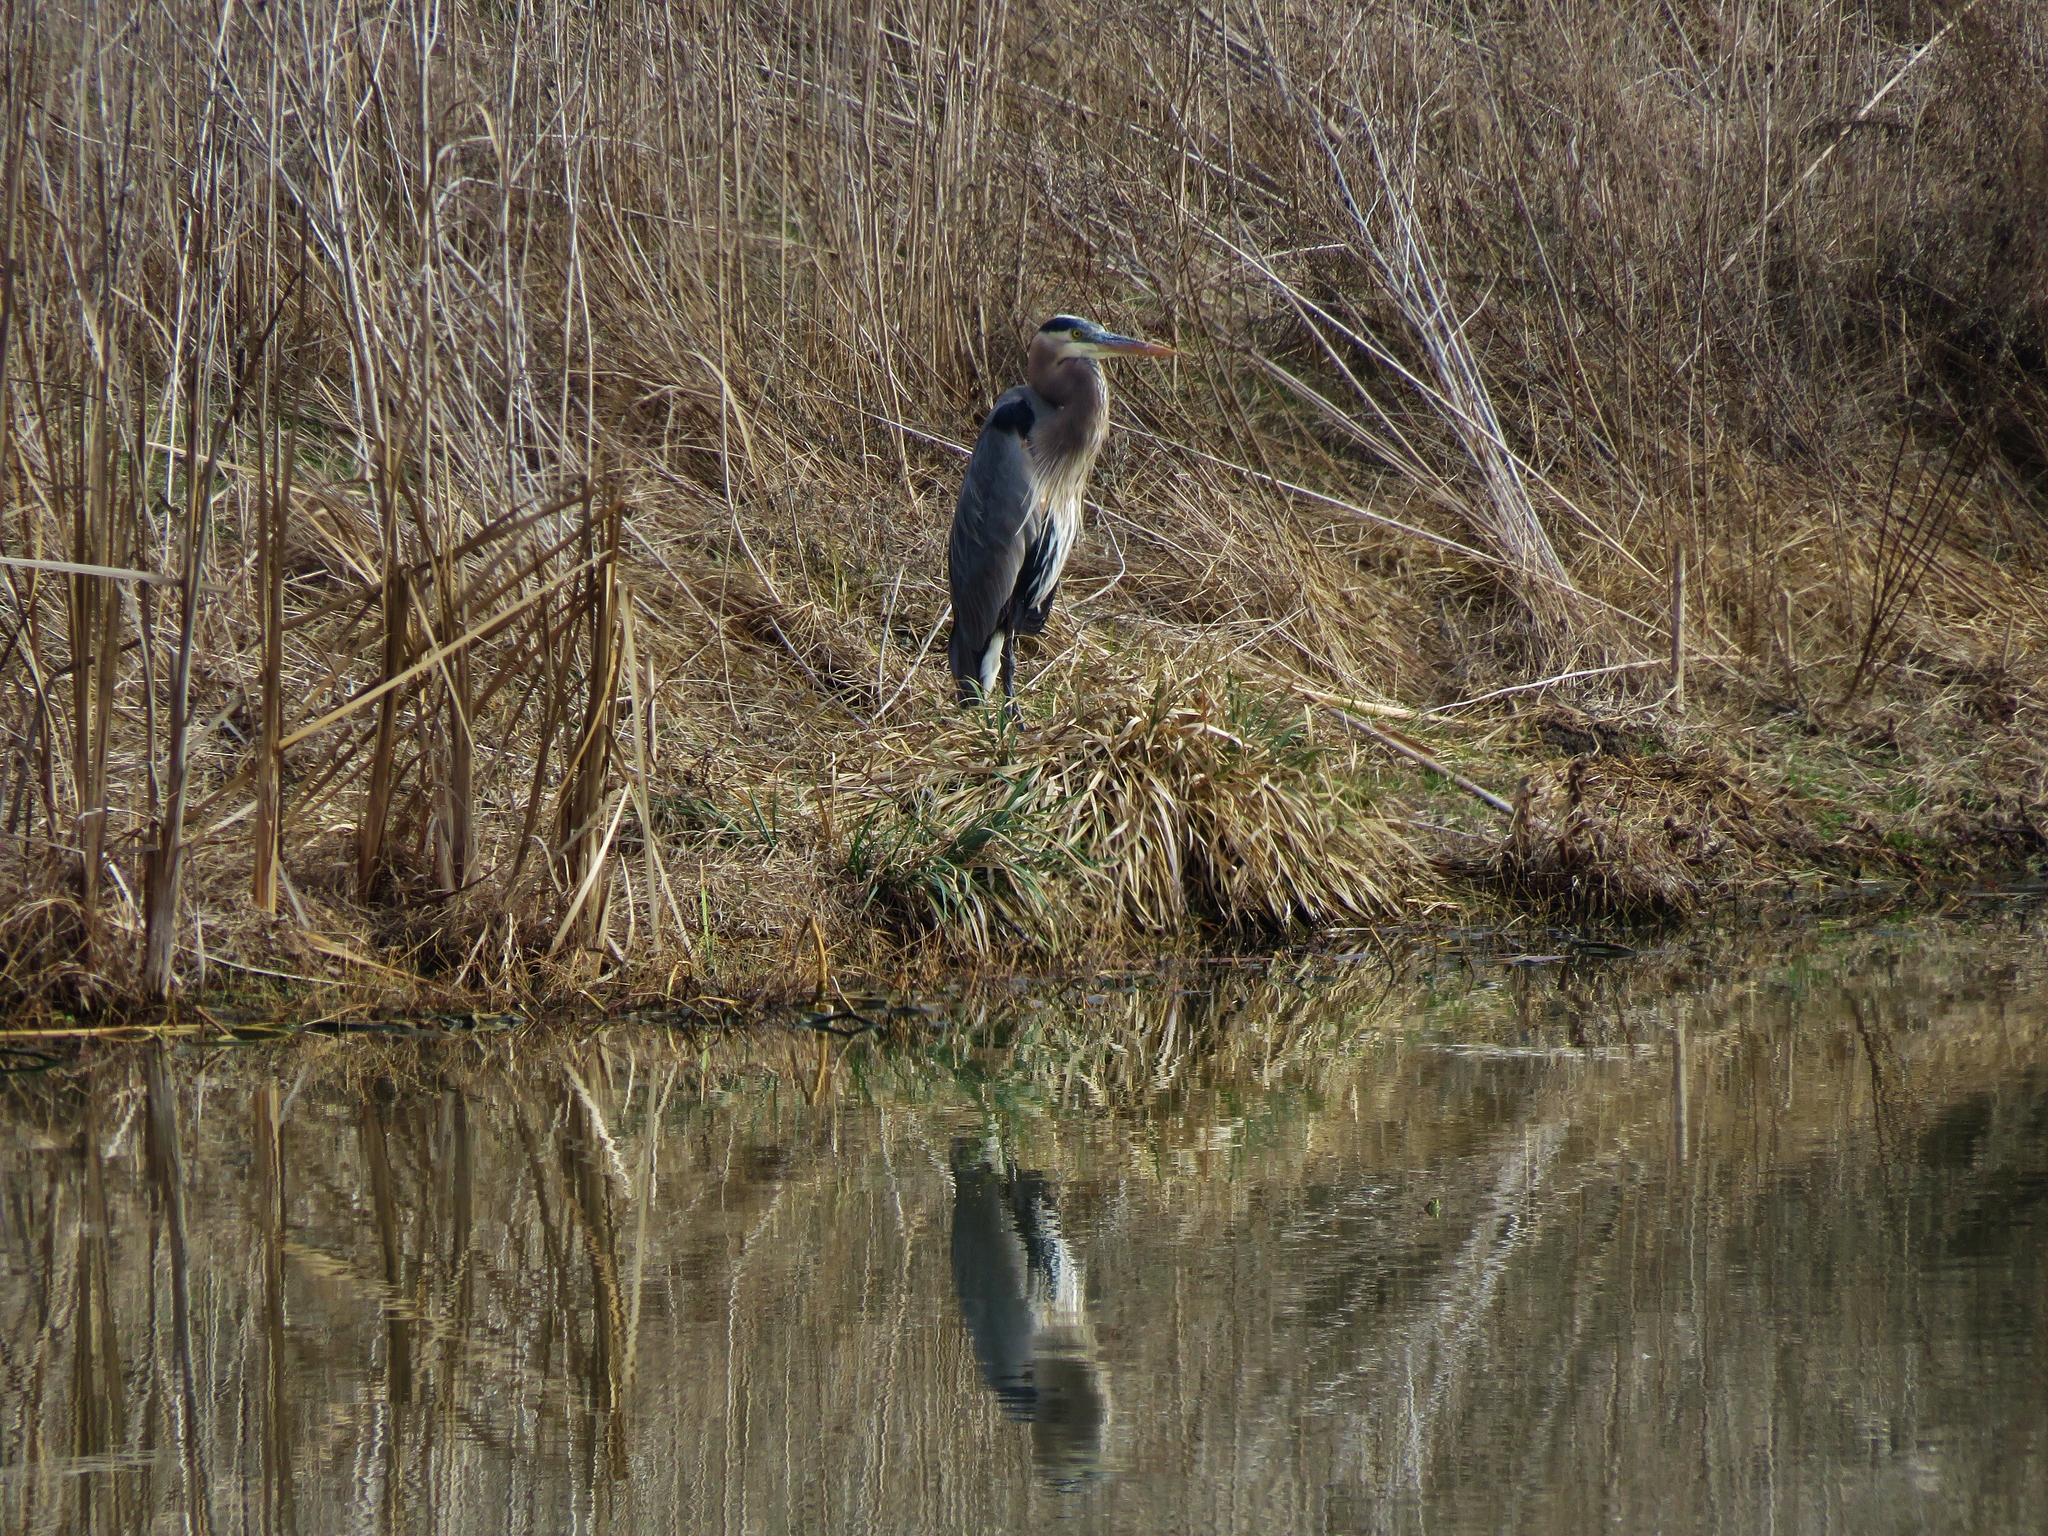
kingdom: Animalia
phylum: Chordata
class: Aves
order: Pelecaniformes
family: Ardeidae
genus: Ardea
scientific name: Ardea herodias
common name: Great blue heron
